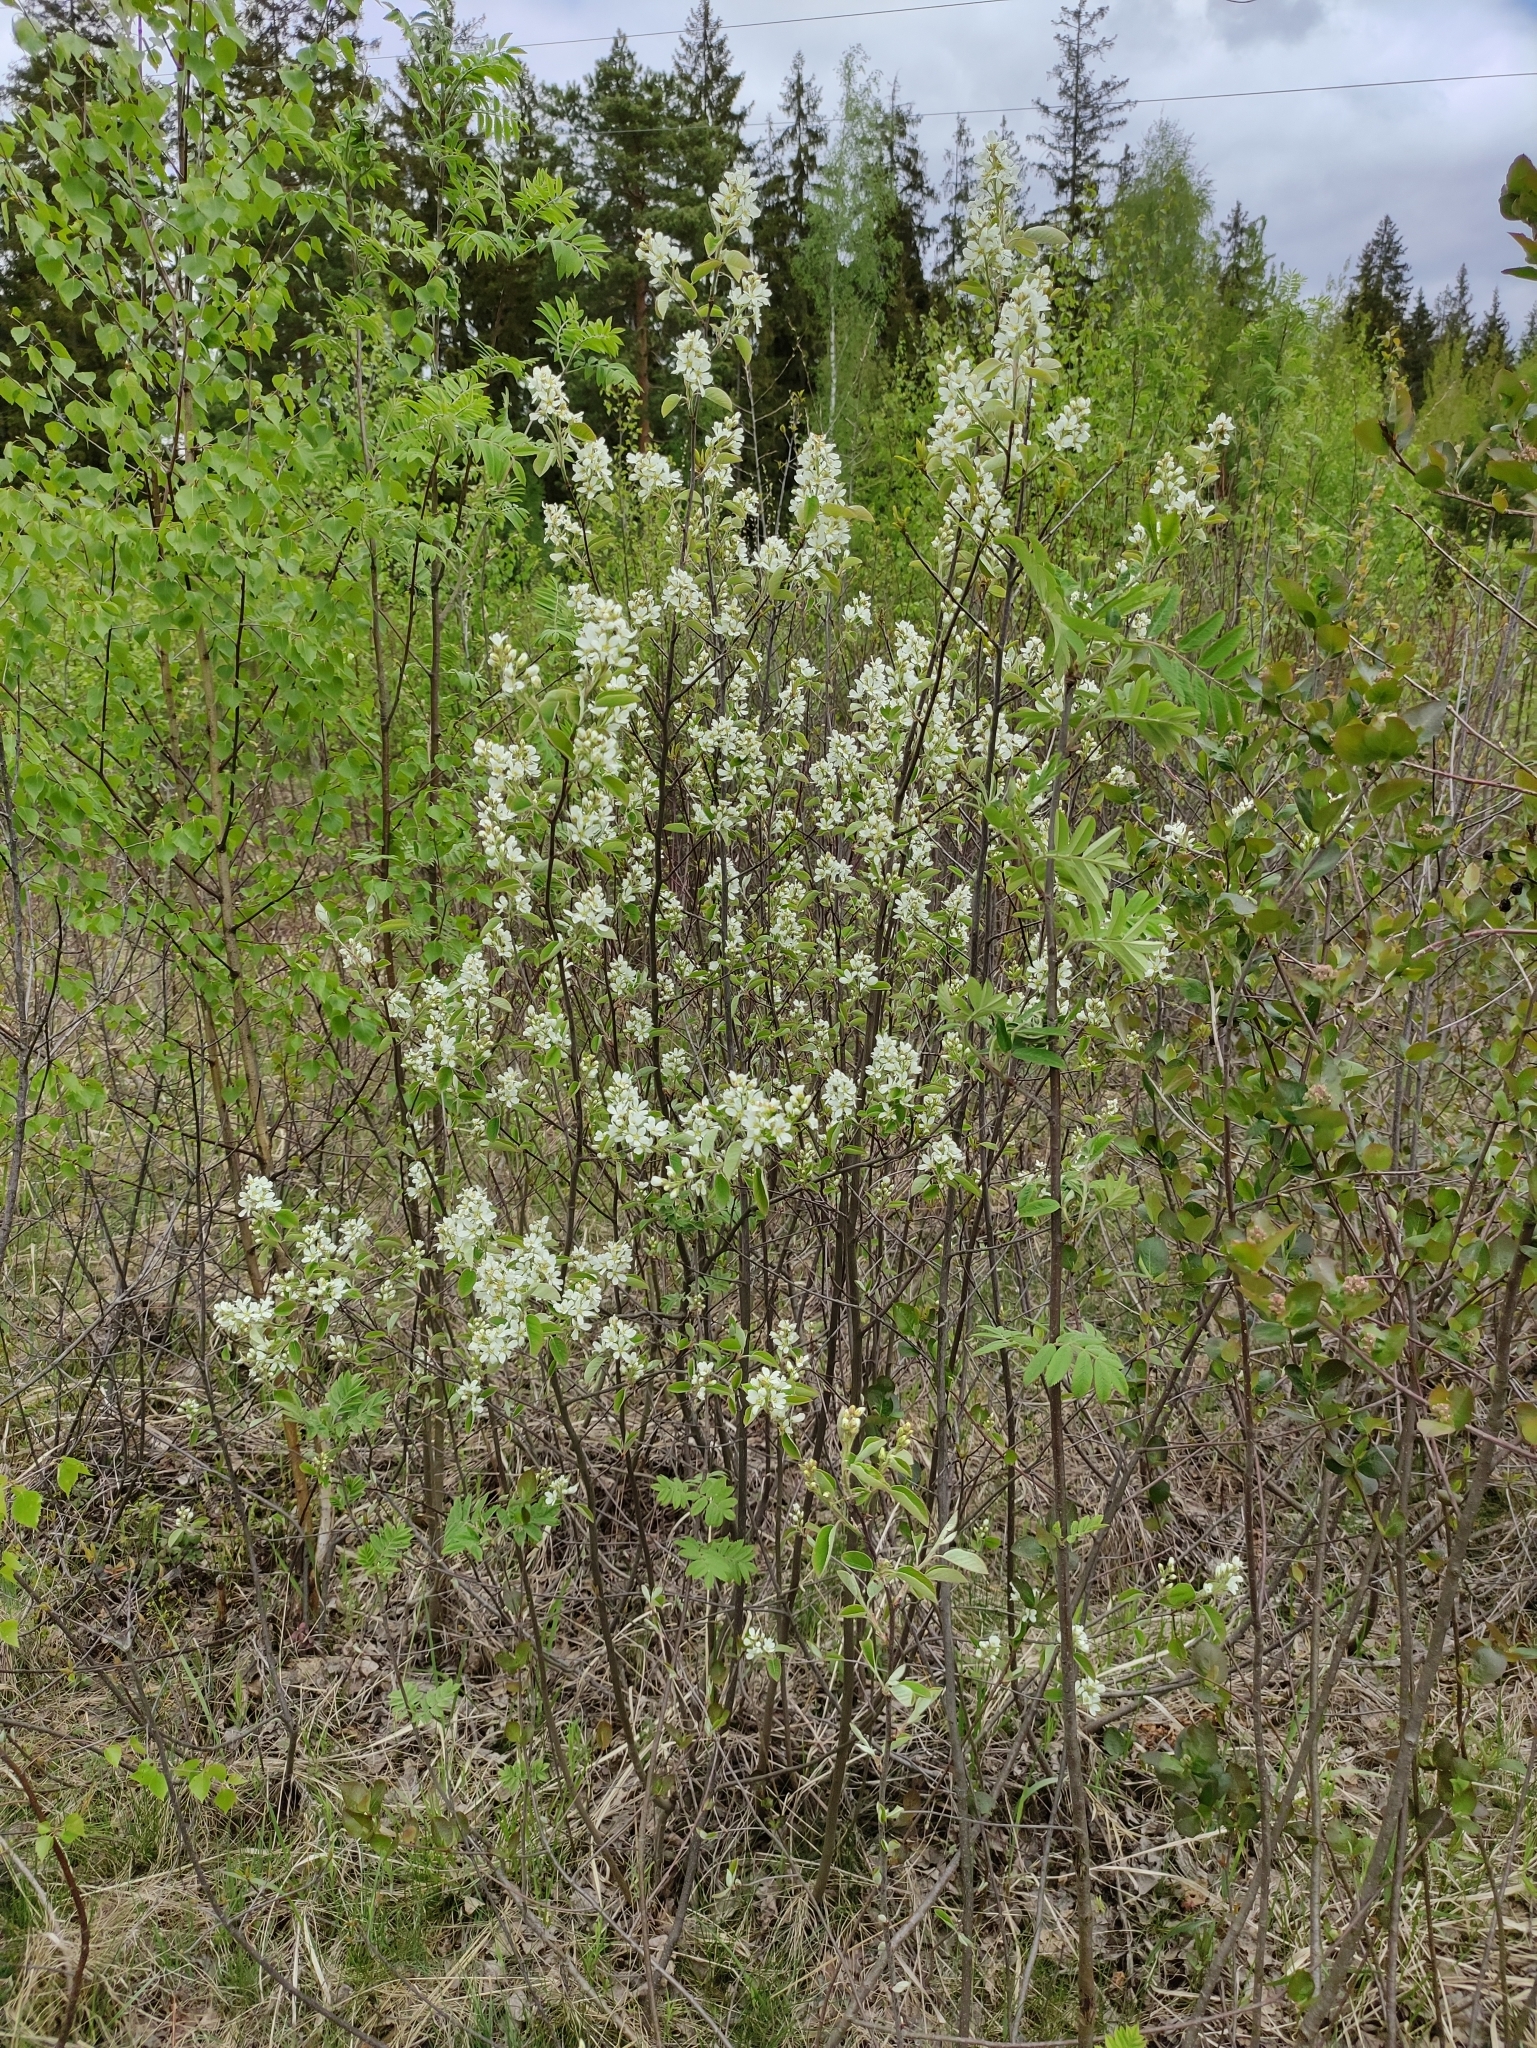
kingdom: Plantae
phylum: Tracheophyta
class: Magnoliopsida
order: Rosales
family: Rosaceae
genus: Amelanchier
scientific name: Amelanchier
